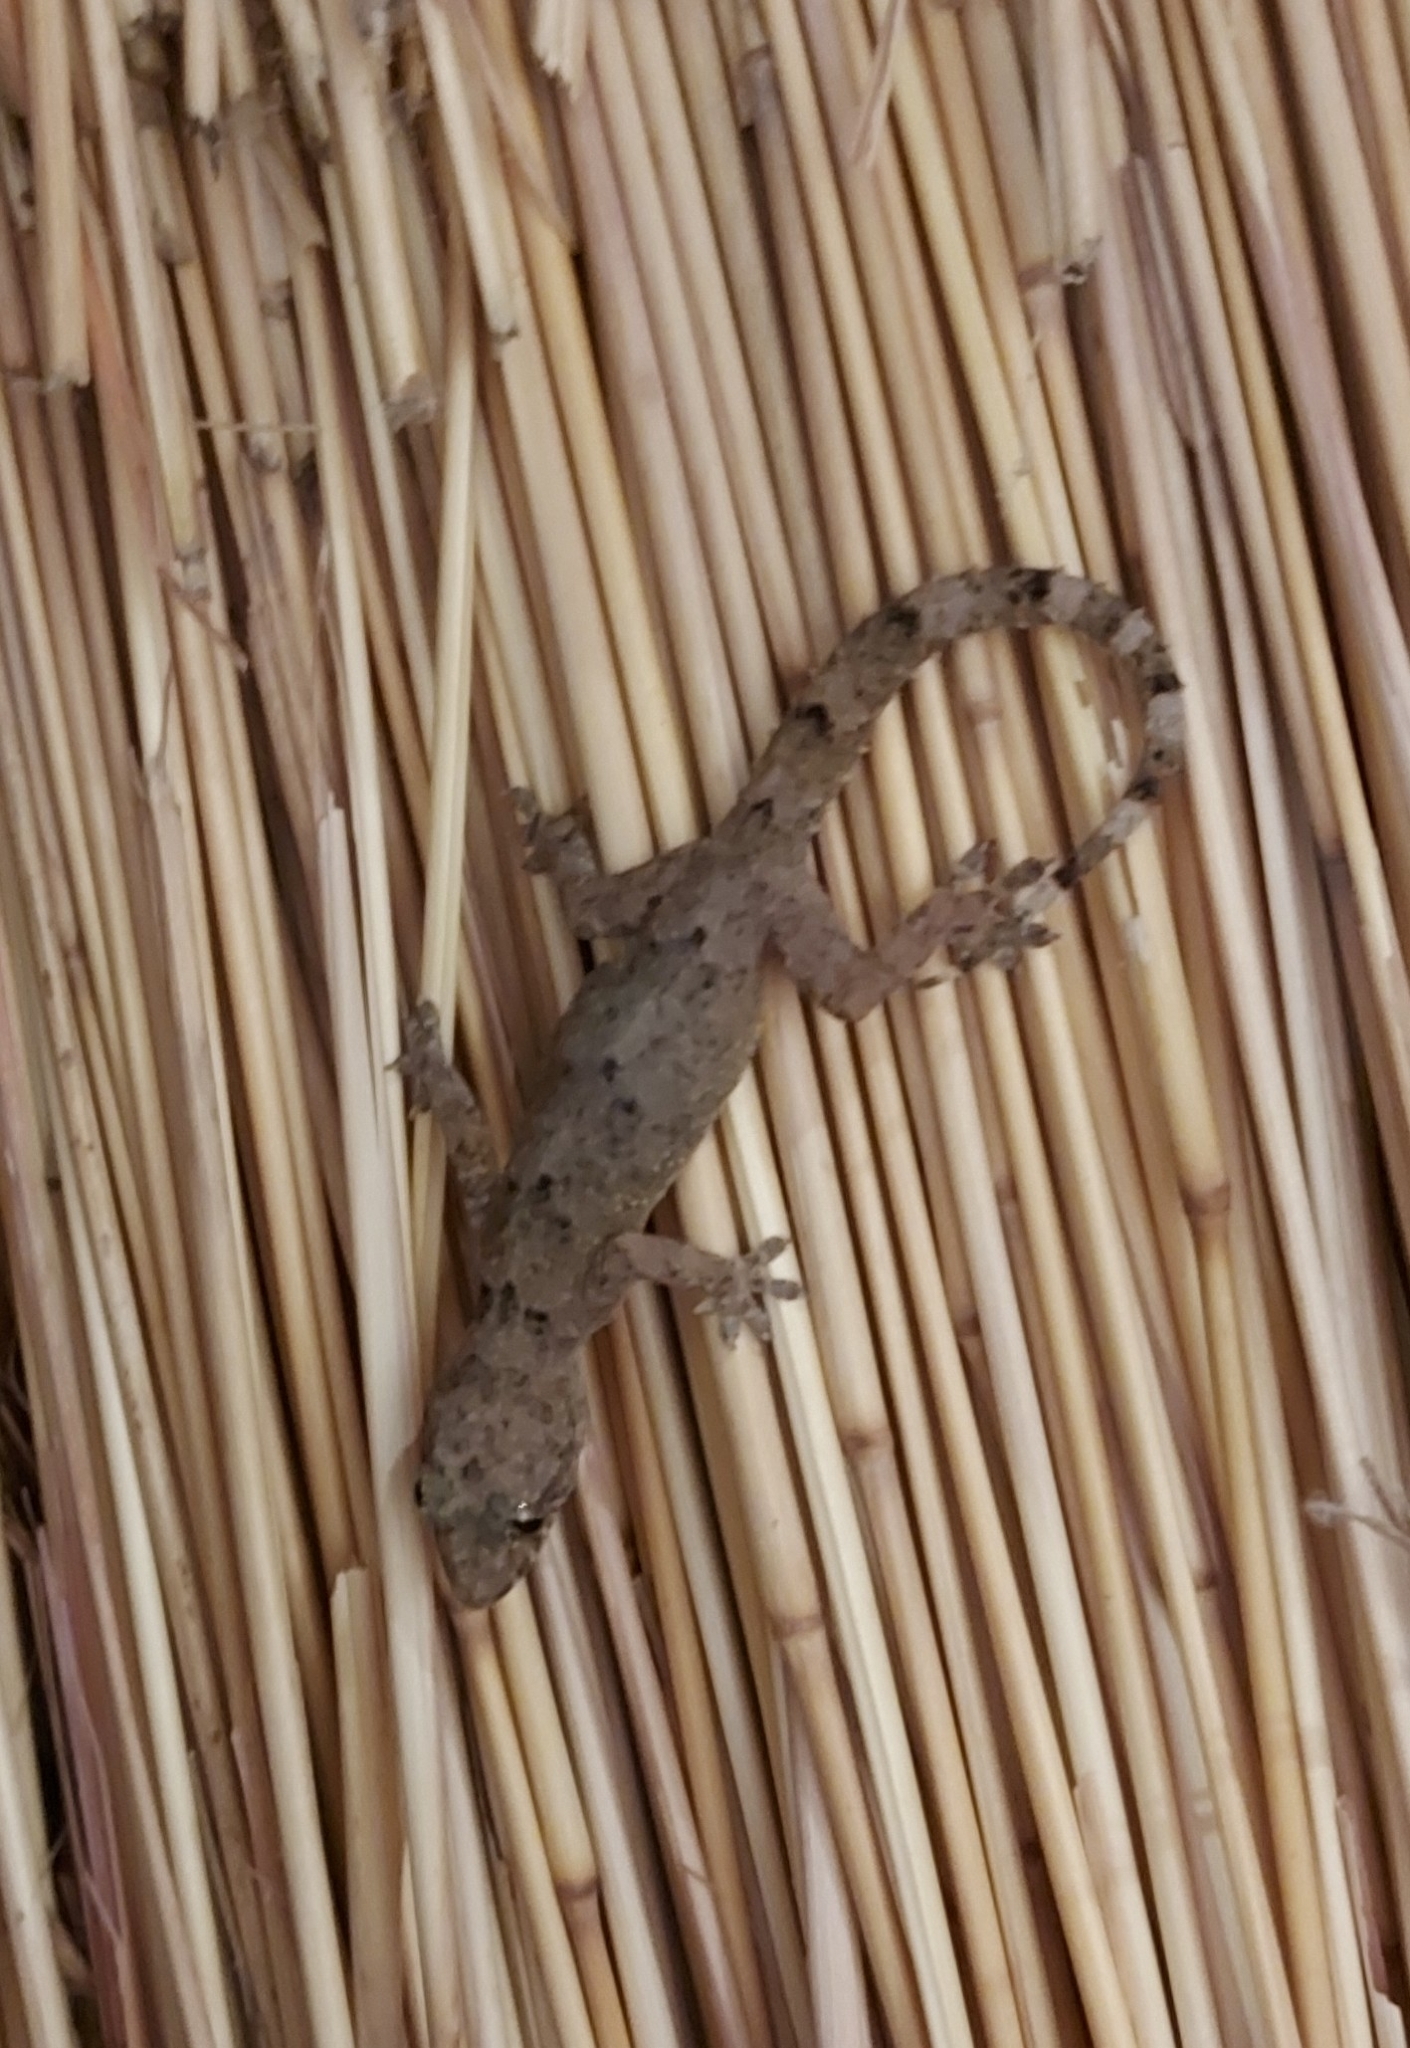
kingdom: Animalia
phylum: Chordata
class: Squamata
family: Gekkonidae
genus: Hemidactylus
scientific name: Hemidactylus mabouia
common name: House gecko
